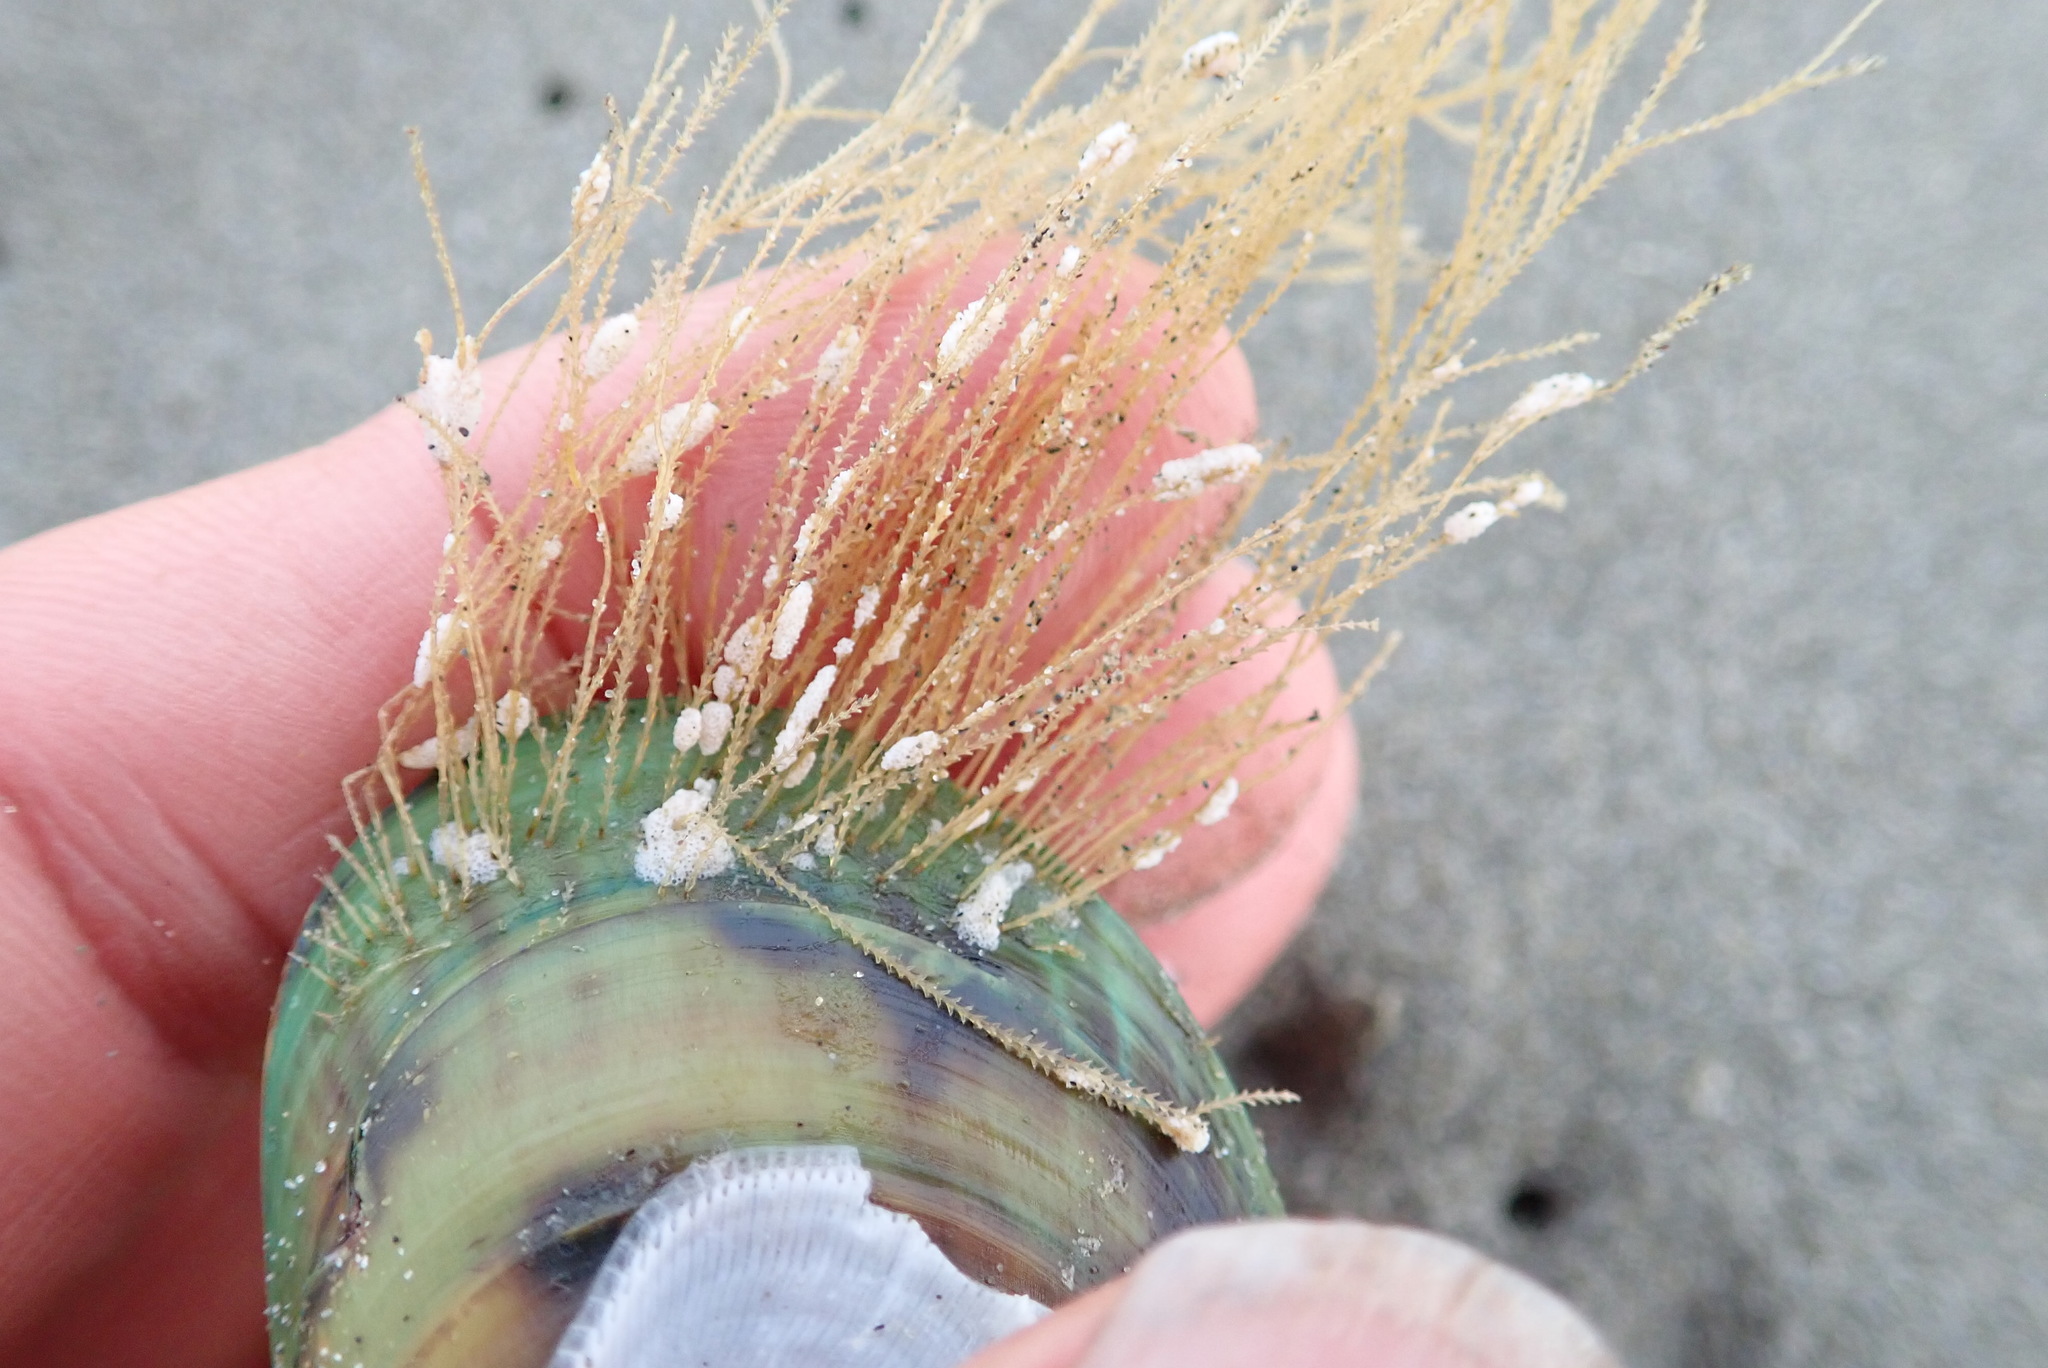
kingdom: Animalia
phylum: Cnidaria
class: Hydrozoa
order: Leptothecata
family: Sertulariidae
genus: Amphisbetia
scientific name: Amphisbetia bispinosa
